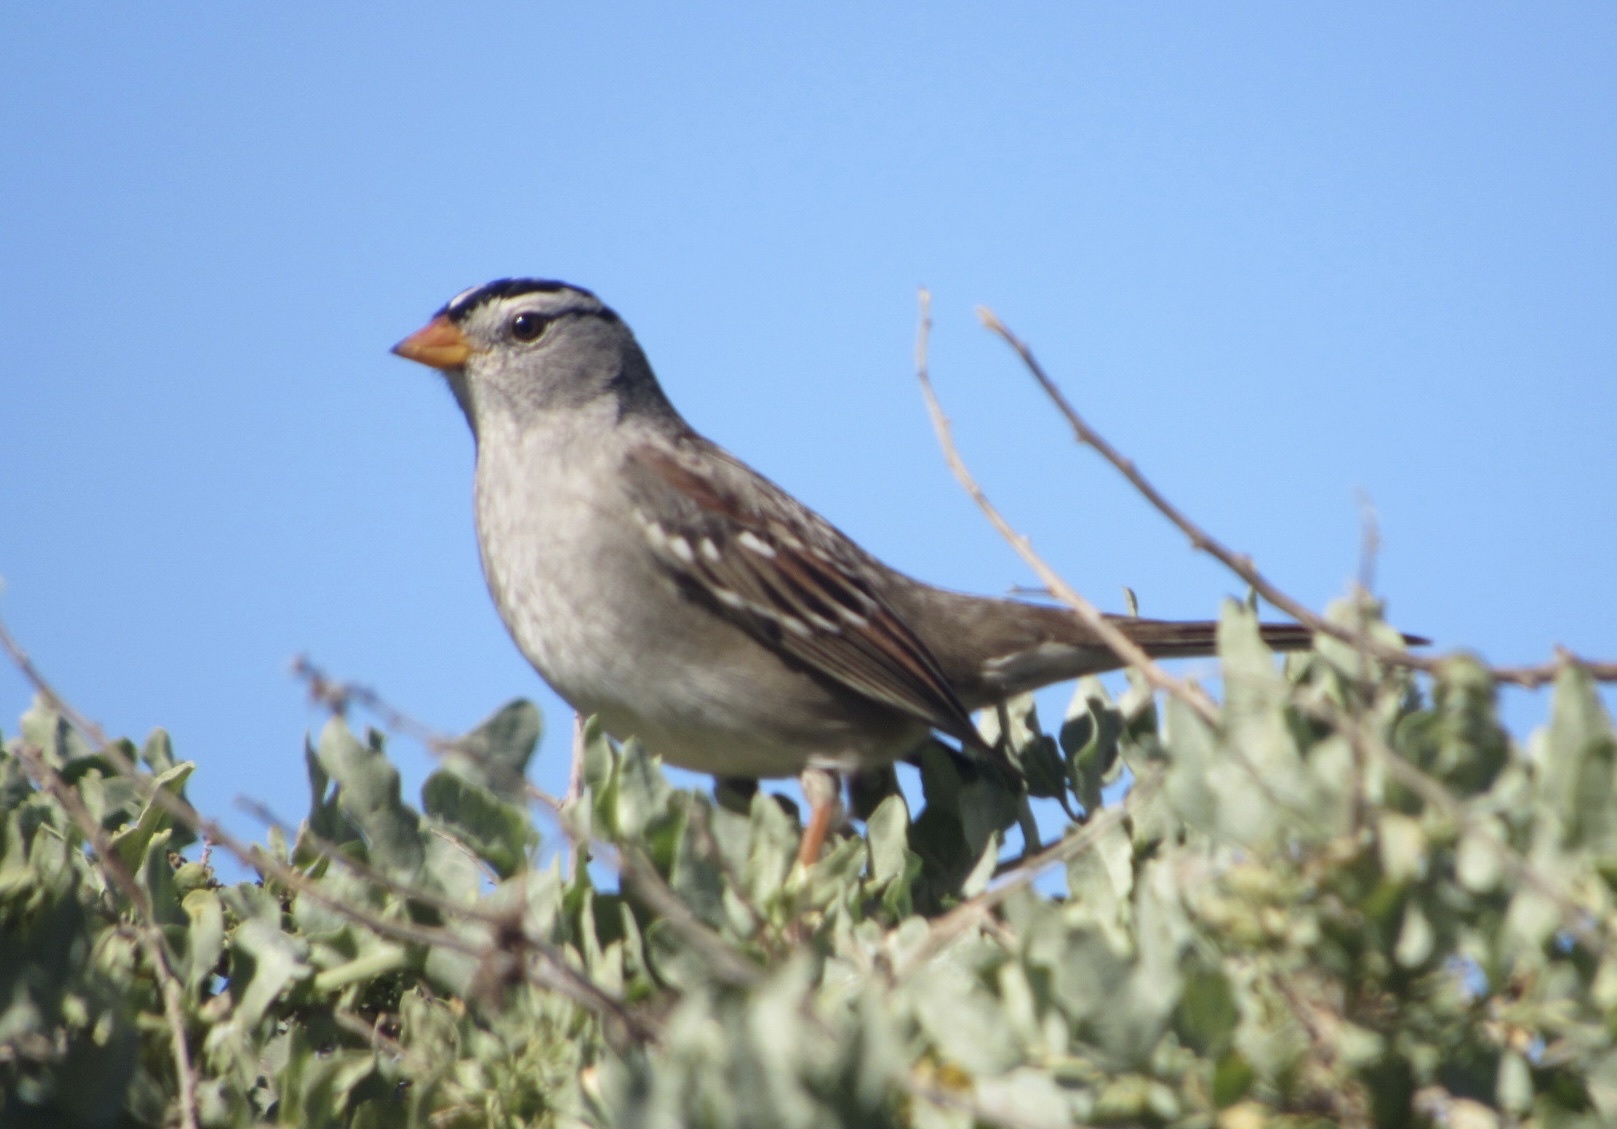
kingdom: Animalia
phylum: Chordata
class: Aves
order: Passeriformes
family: Passerellidae
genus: Zonotrichia
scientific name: Zonotrichia leucophrys
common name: White-crowned sparrow
